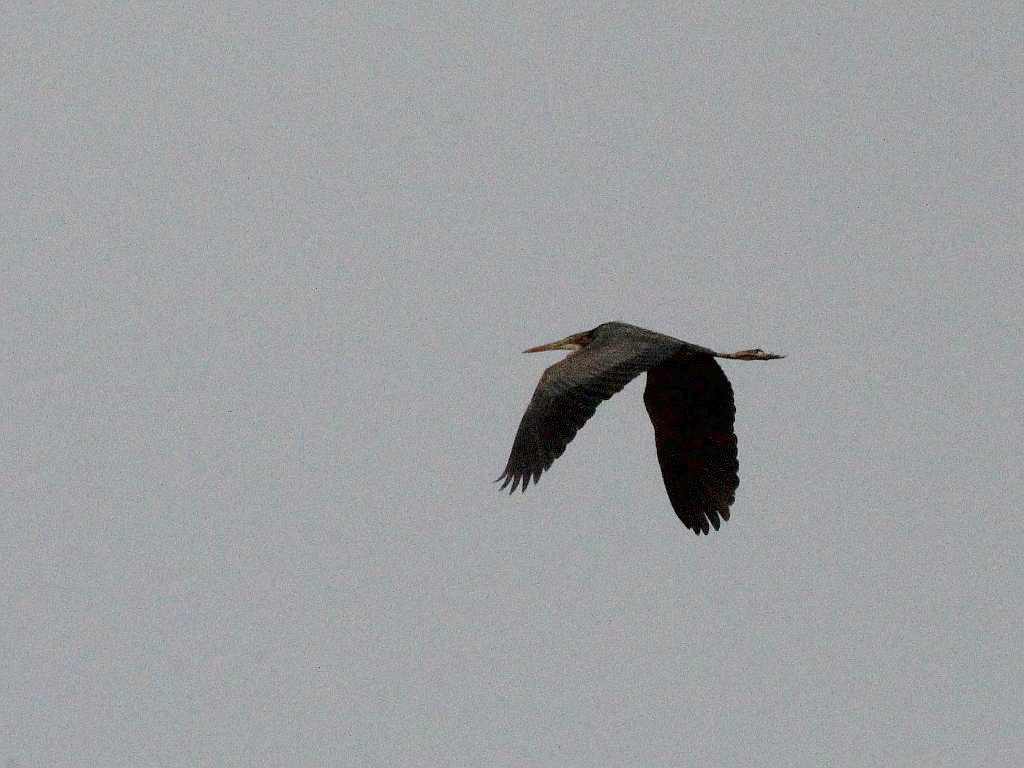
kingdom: Animalia
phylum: Chordata
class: Aves
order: Pelecaniformes
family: Ardeidae
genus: Ardea
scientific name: Ardea purpurea
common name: Purple heron
